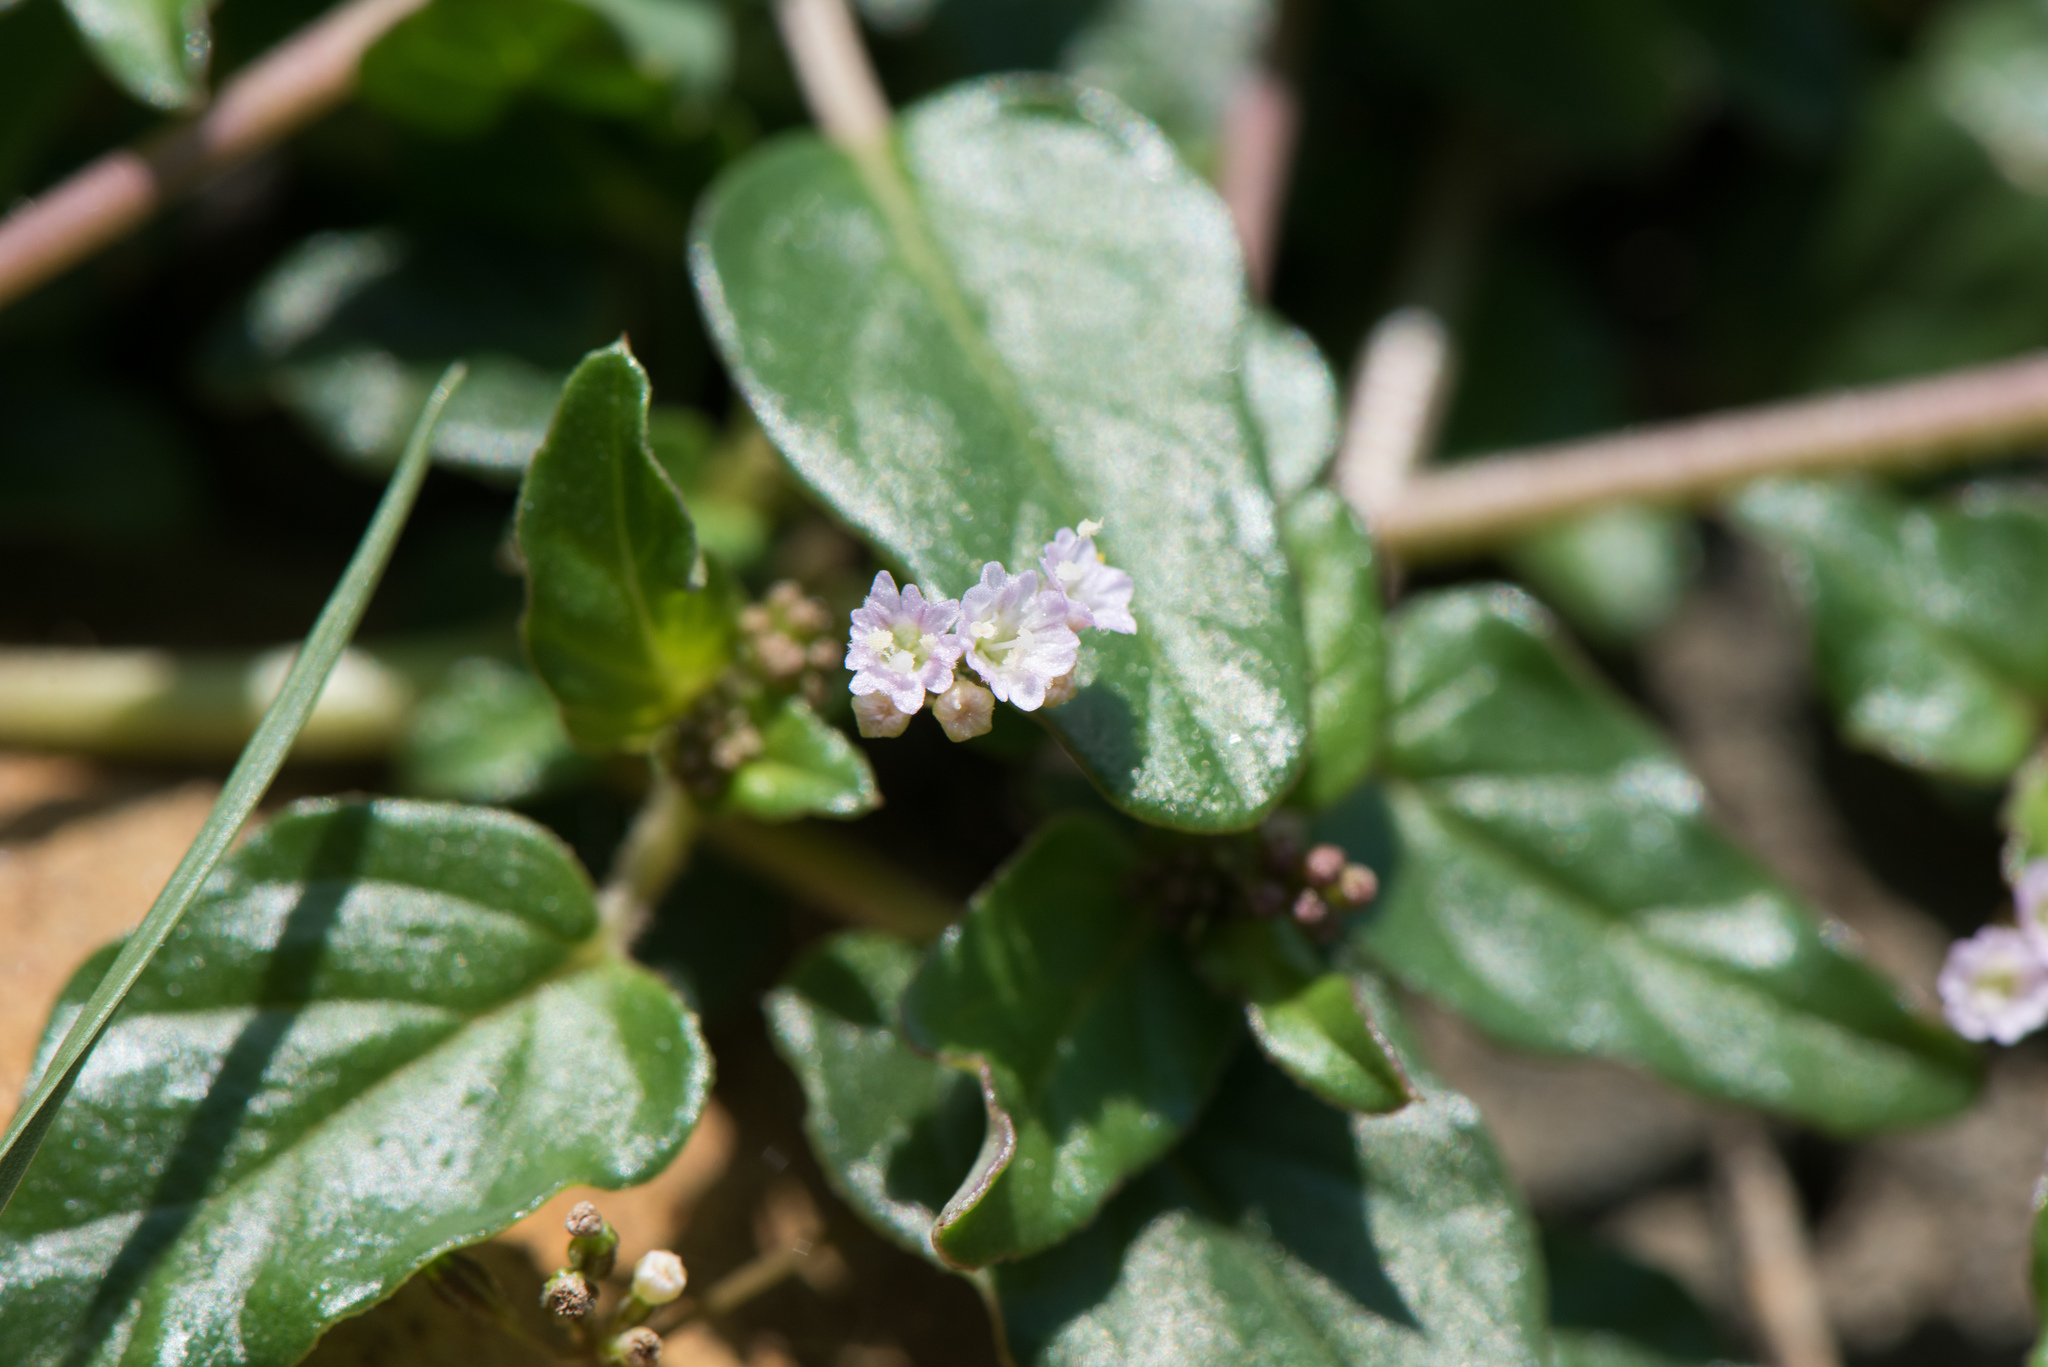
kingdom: Plantae
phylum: Tracheophyta
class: Magnoliopsida
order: Caryophyllales
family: Nyctaginaceae
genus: Boerhavia
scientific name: Boerhavia glabrata
